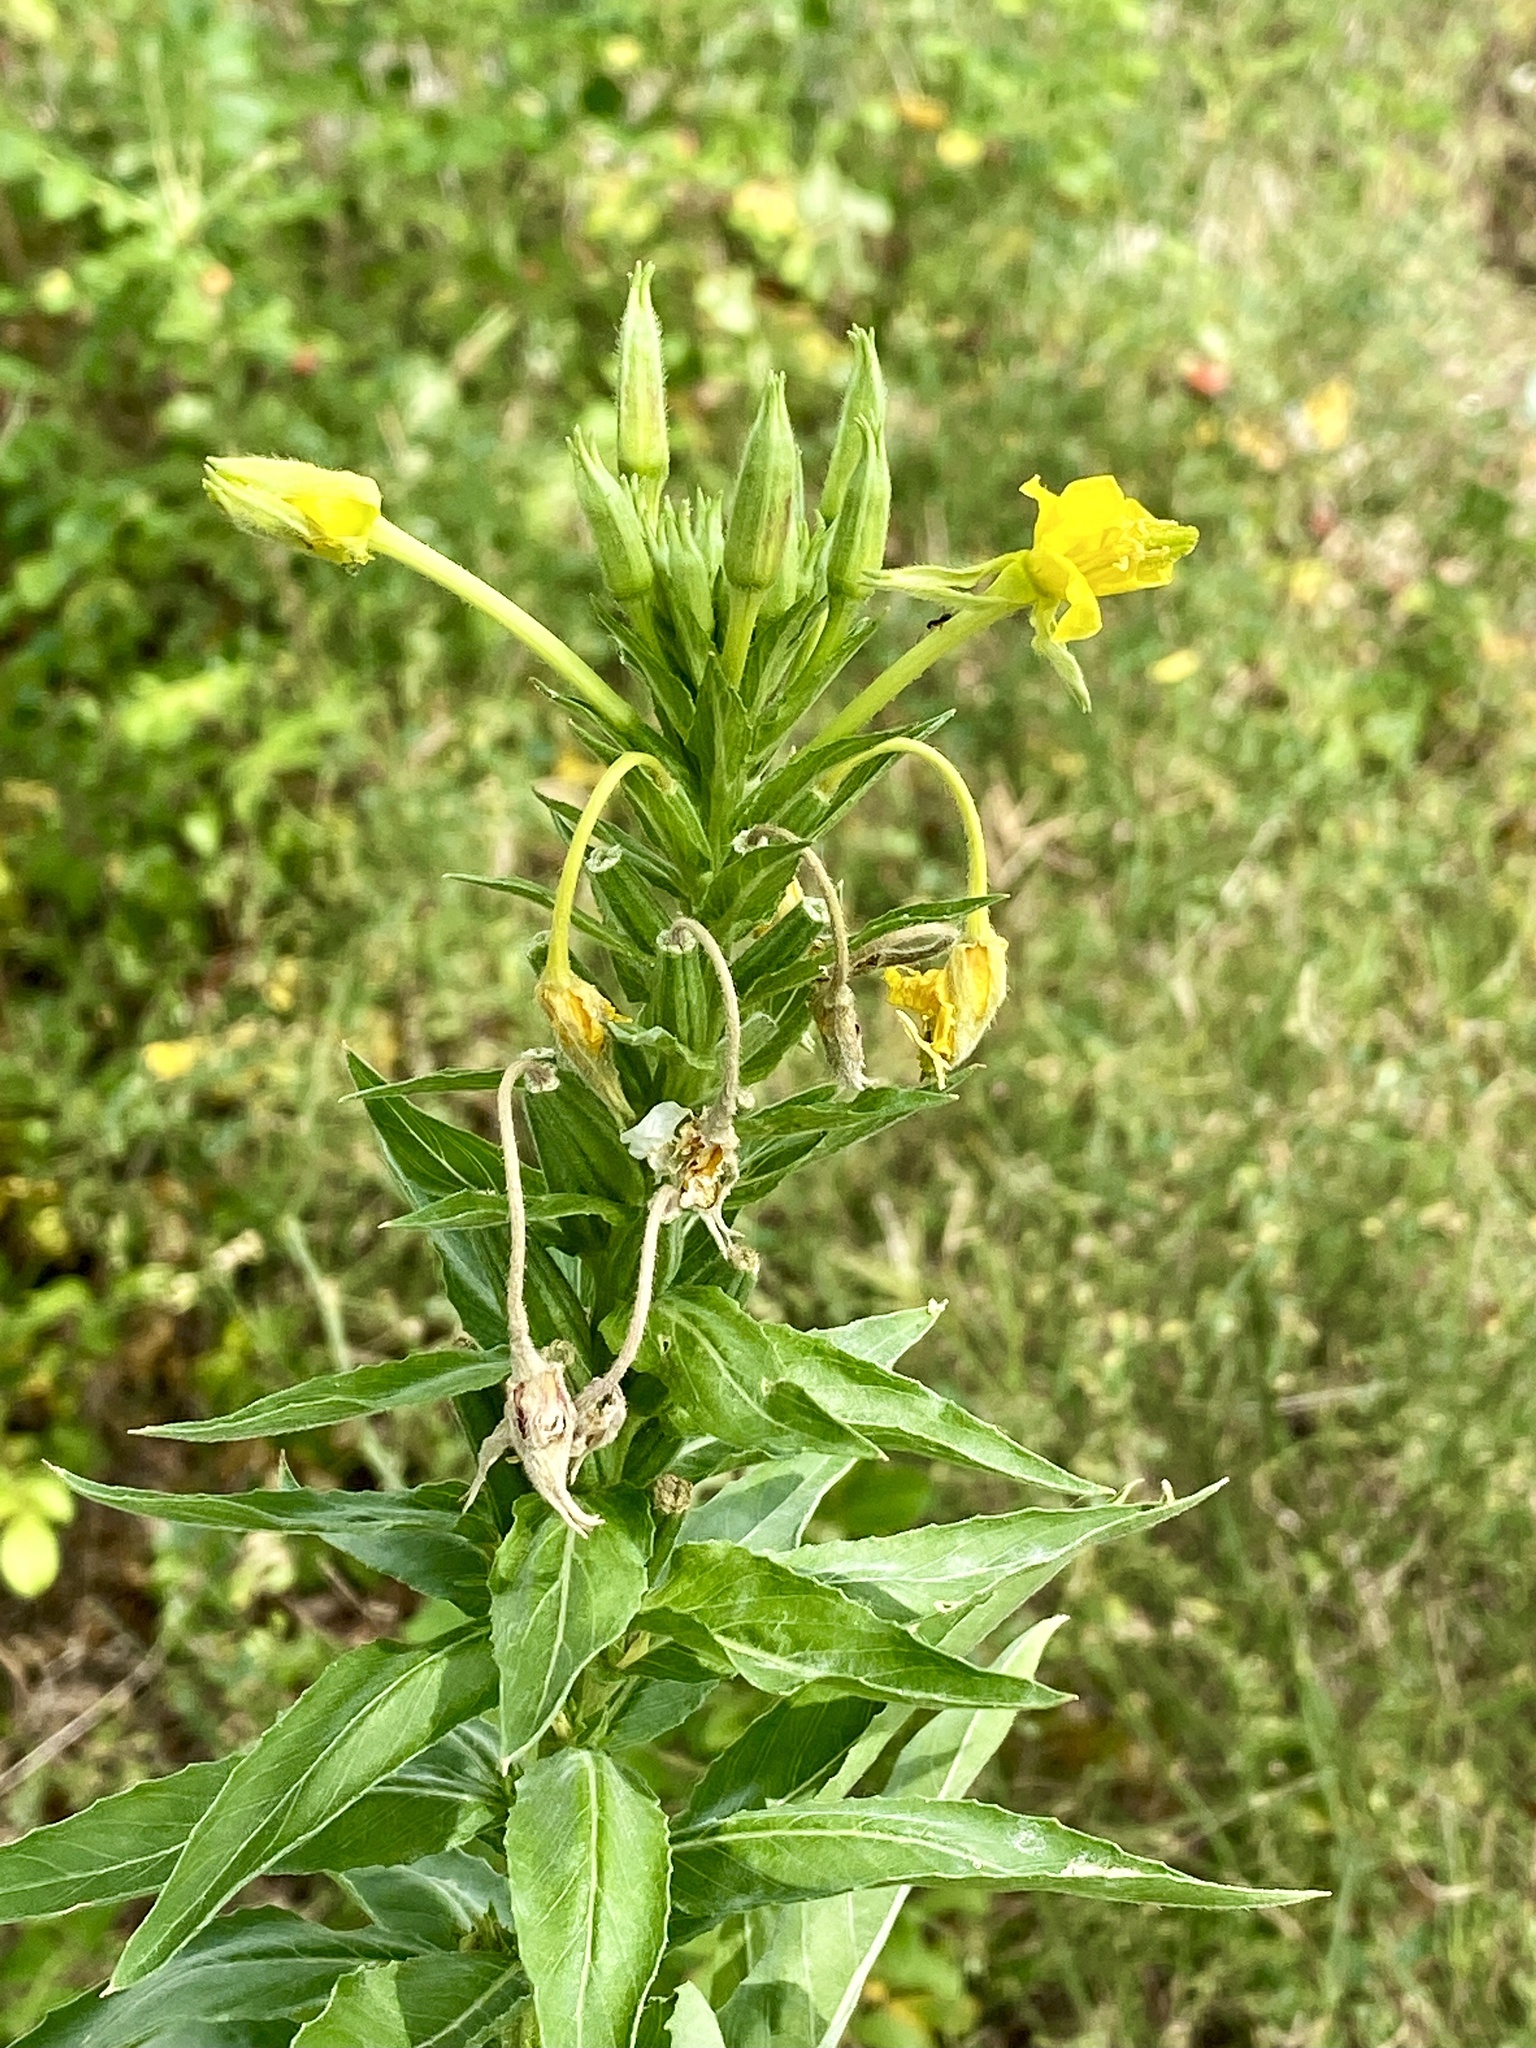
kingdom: Plantae
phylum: Tracheophyta
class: Magnoliopsida
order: Myrtales
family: Onagraceae
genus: Oenothera
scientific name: Oenothera biennis
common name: Common evening-primrose
